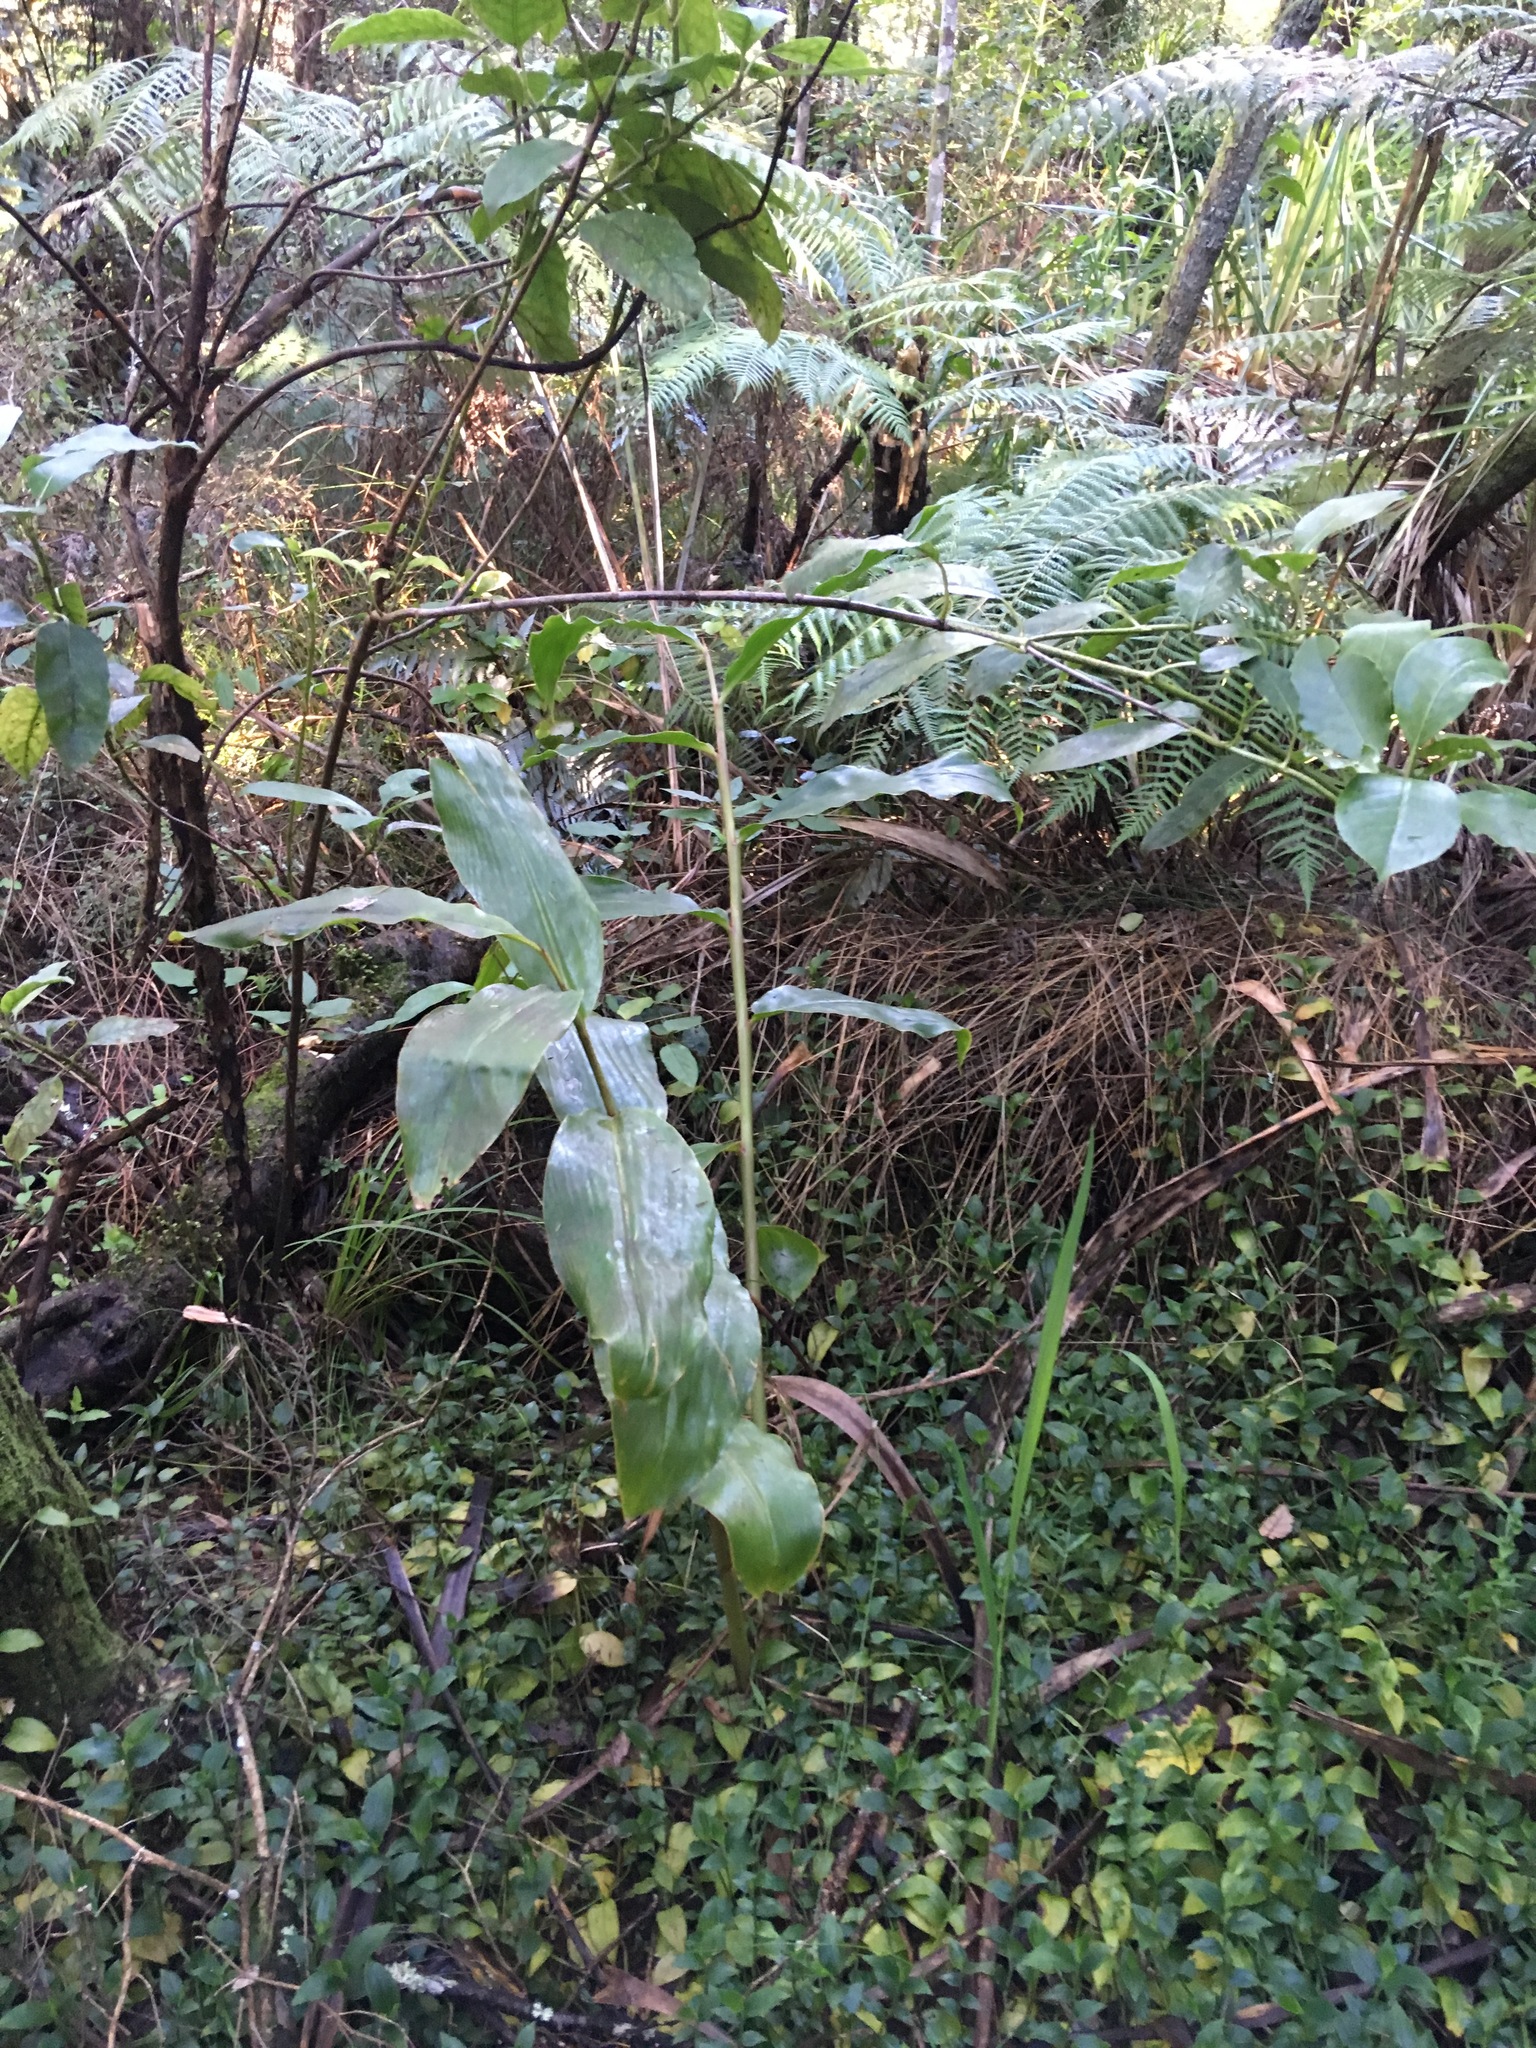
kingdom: Plantae
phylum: Tracheophyta
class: Liliopsida
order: Zingiberales
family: Zingiberaceae
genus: Hedychium
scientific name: Hedychium gardnerianum
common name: Himalayan ginger
